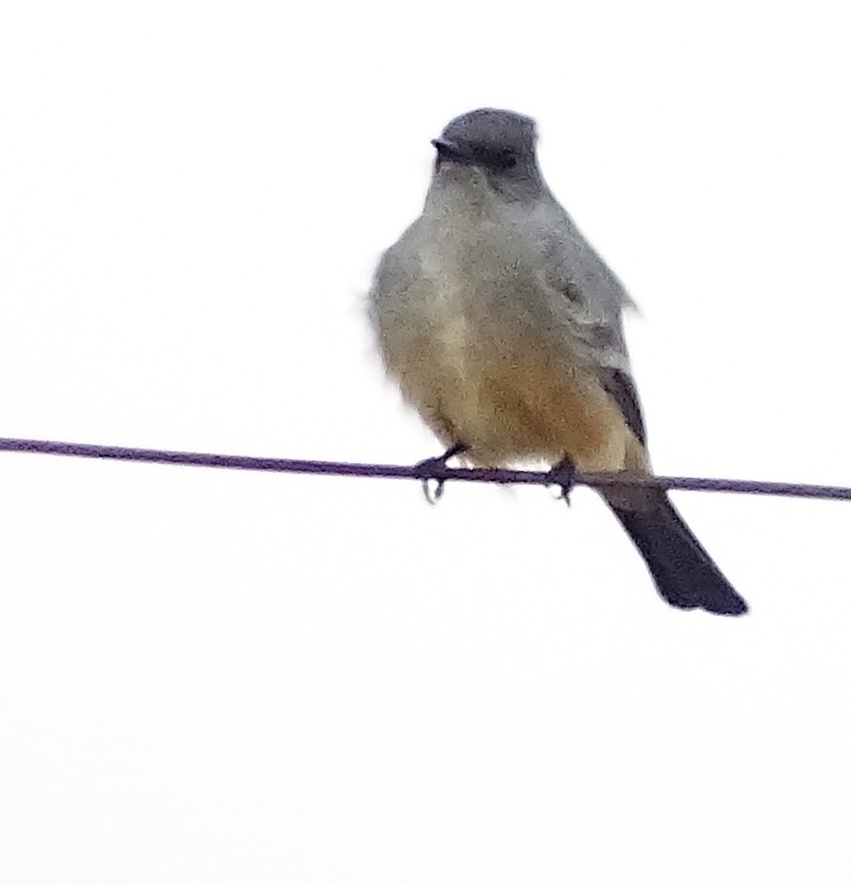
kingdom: Animalia
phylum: Chordata
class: Aves
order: Passeriformes
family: Tyrannidae
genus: Sayornis
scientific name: Sayornis saya
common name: Say's phoebe
